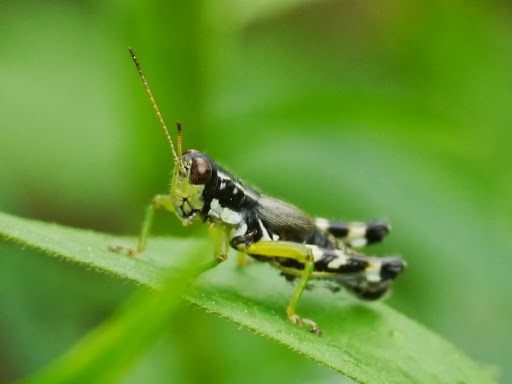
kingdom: Animalia
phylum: Arthropoda
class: Insecta
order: Orthoptera
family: Acrididae
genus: Melanoplus
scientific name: Melanoplus viridipes
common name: Green-legged locust
